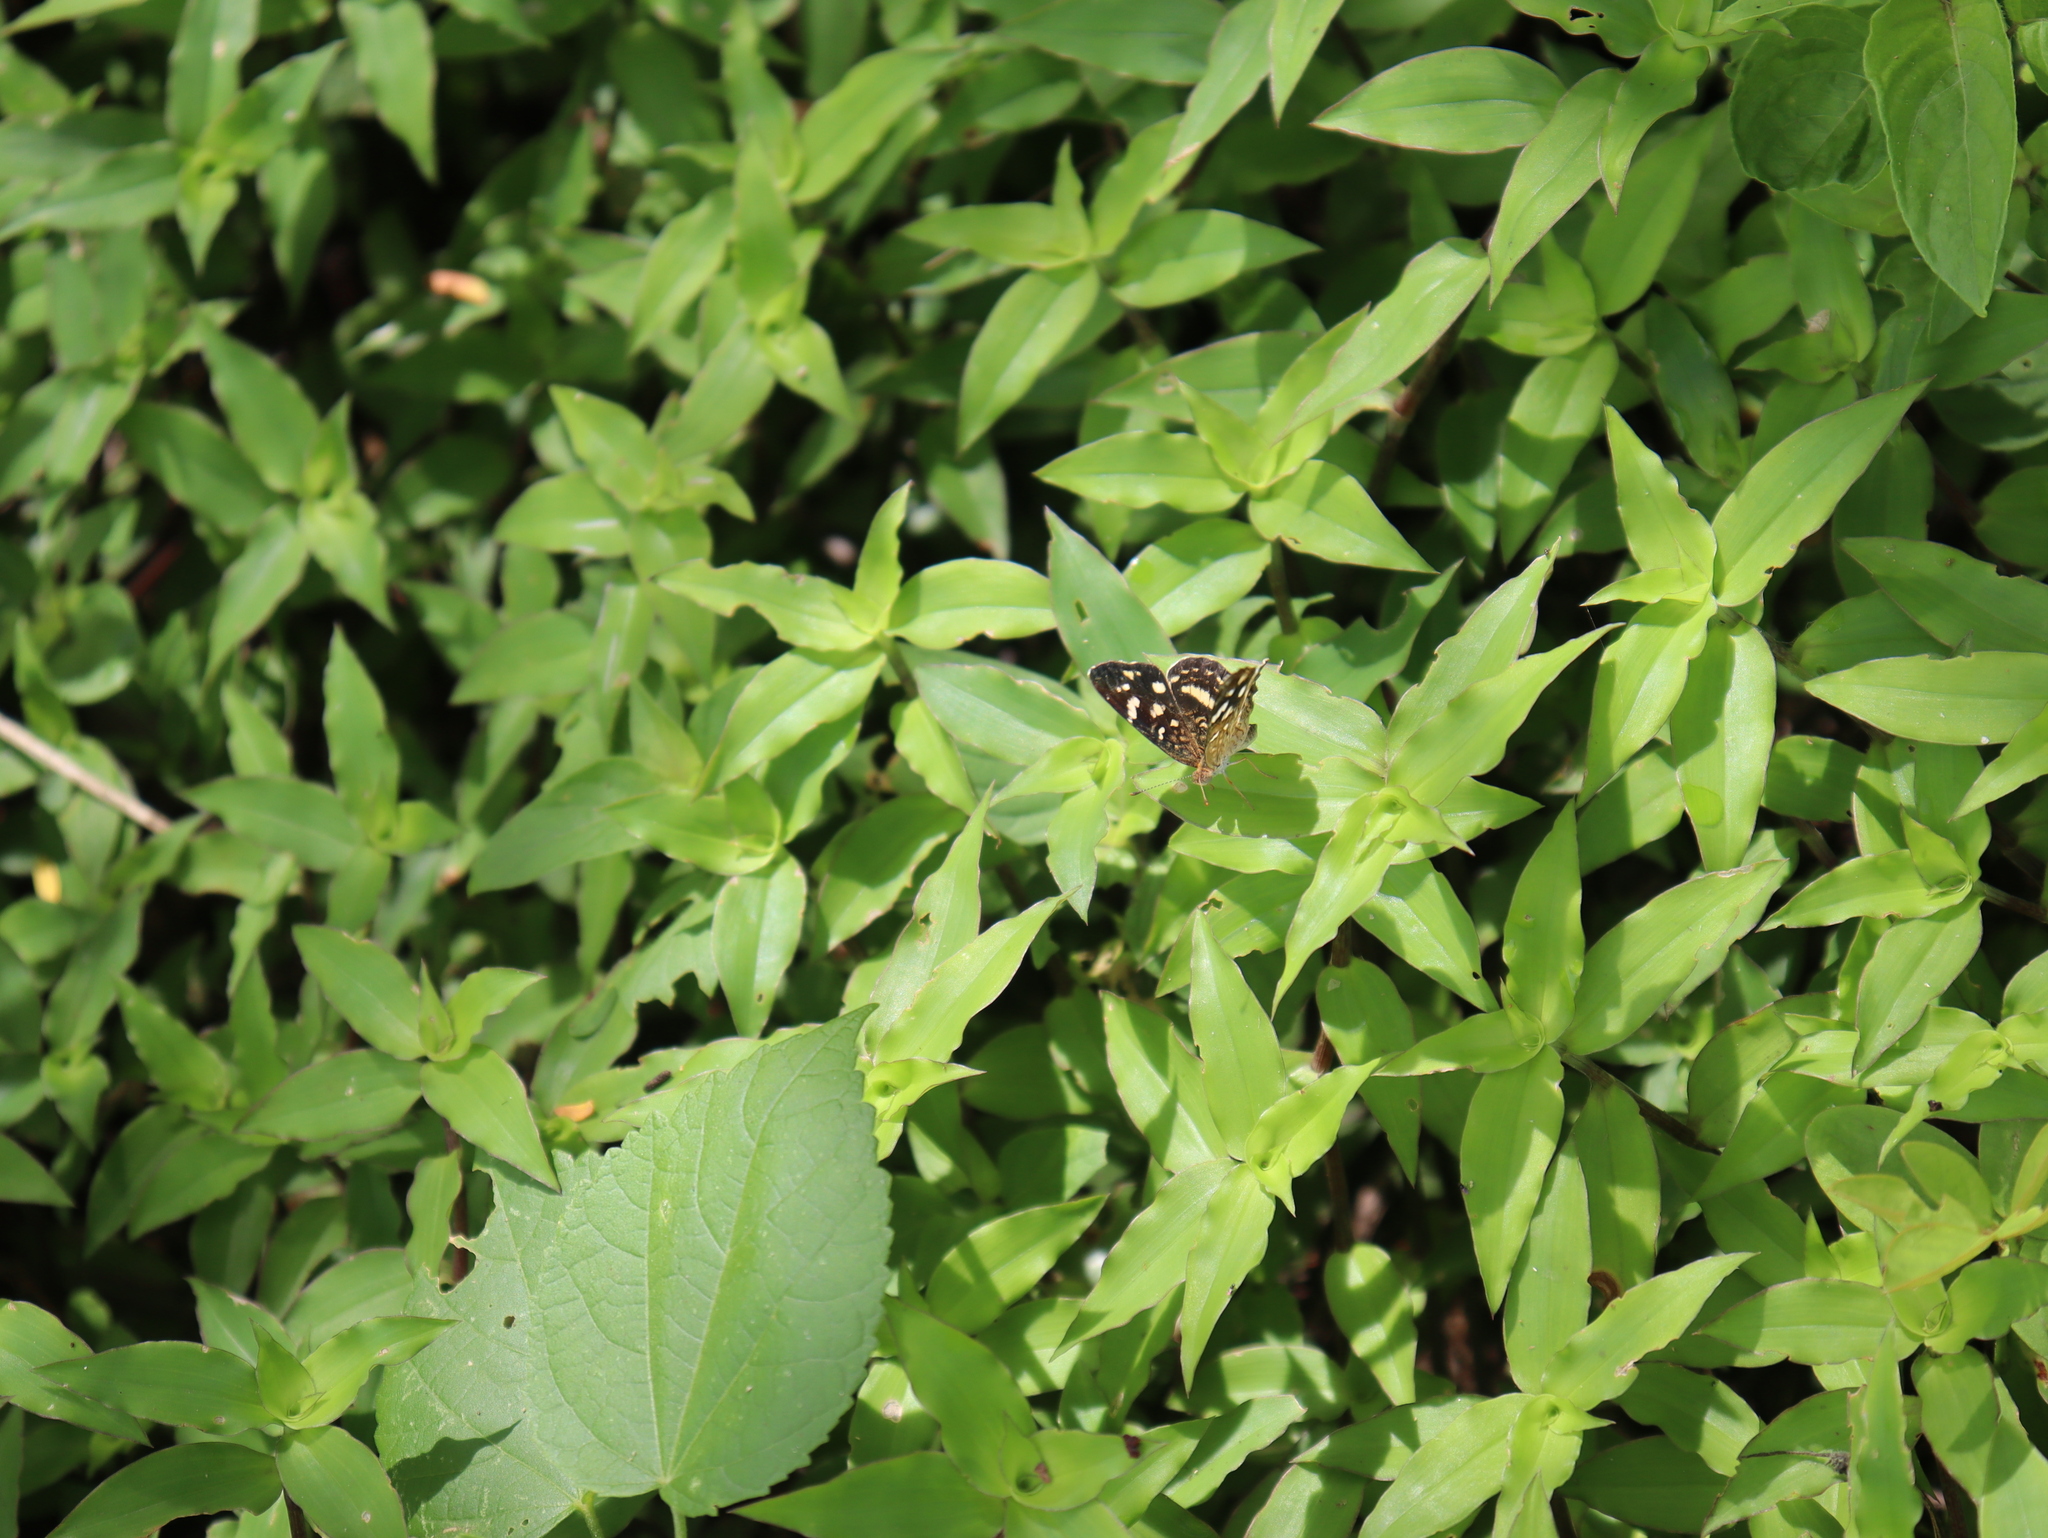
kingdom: Animalia
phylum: Arthropoda
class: Insecta
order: Lepidoptera
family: Nymphalidae
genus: Anthanassa
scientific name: Anthanassa tulcis
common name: Pale-banded crescent
